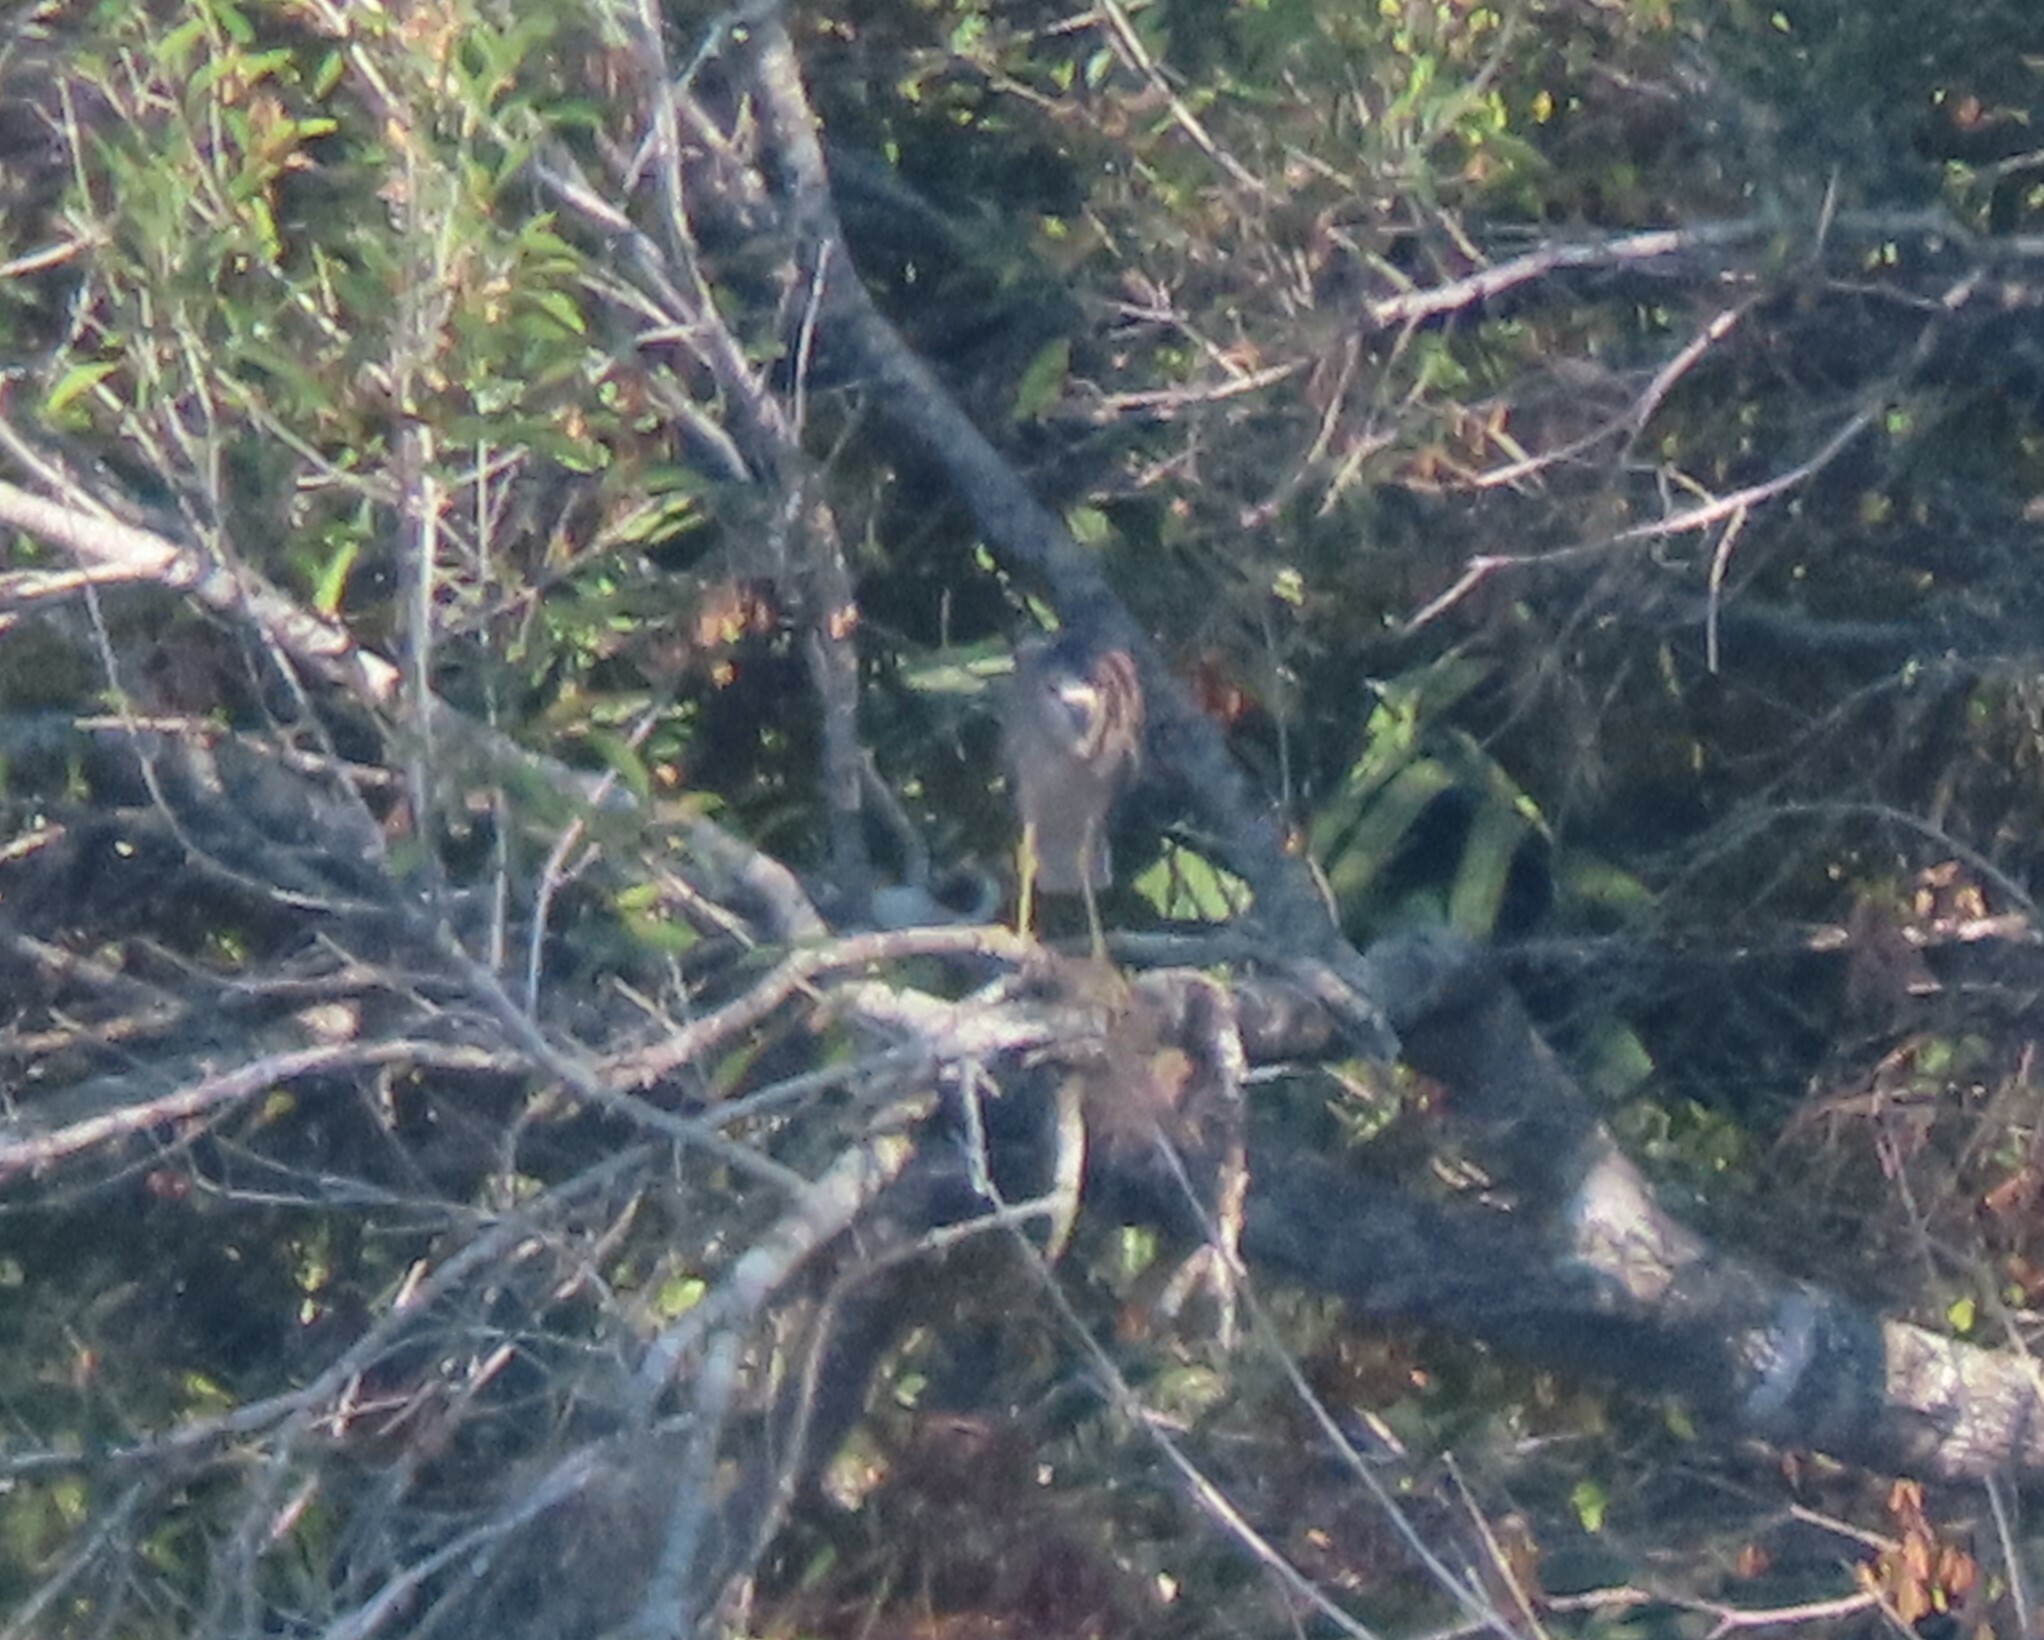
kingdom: Animalia
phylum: Chordata
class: Aves
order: Pelecaniformes
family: Ardeidae
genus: Nycticorax
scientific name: Nycticorax nycticorax
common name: Black-crowned night heron
